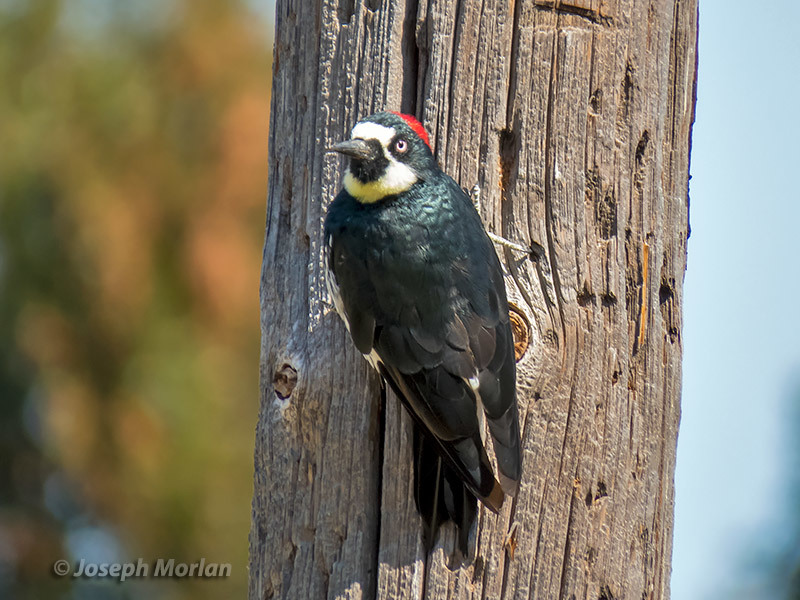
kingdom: Animalia
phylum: Chordata
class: Aves
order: Piciformes
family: Picidae
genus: Melanerpes
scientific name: Melanerpes formicivorus
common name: Acorn woodpecker
